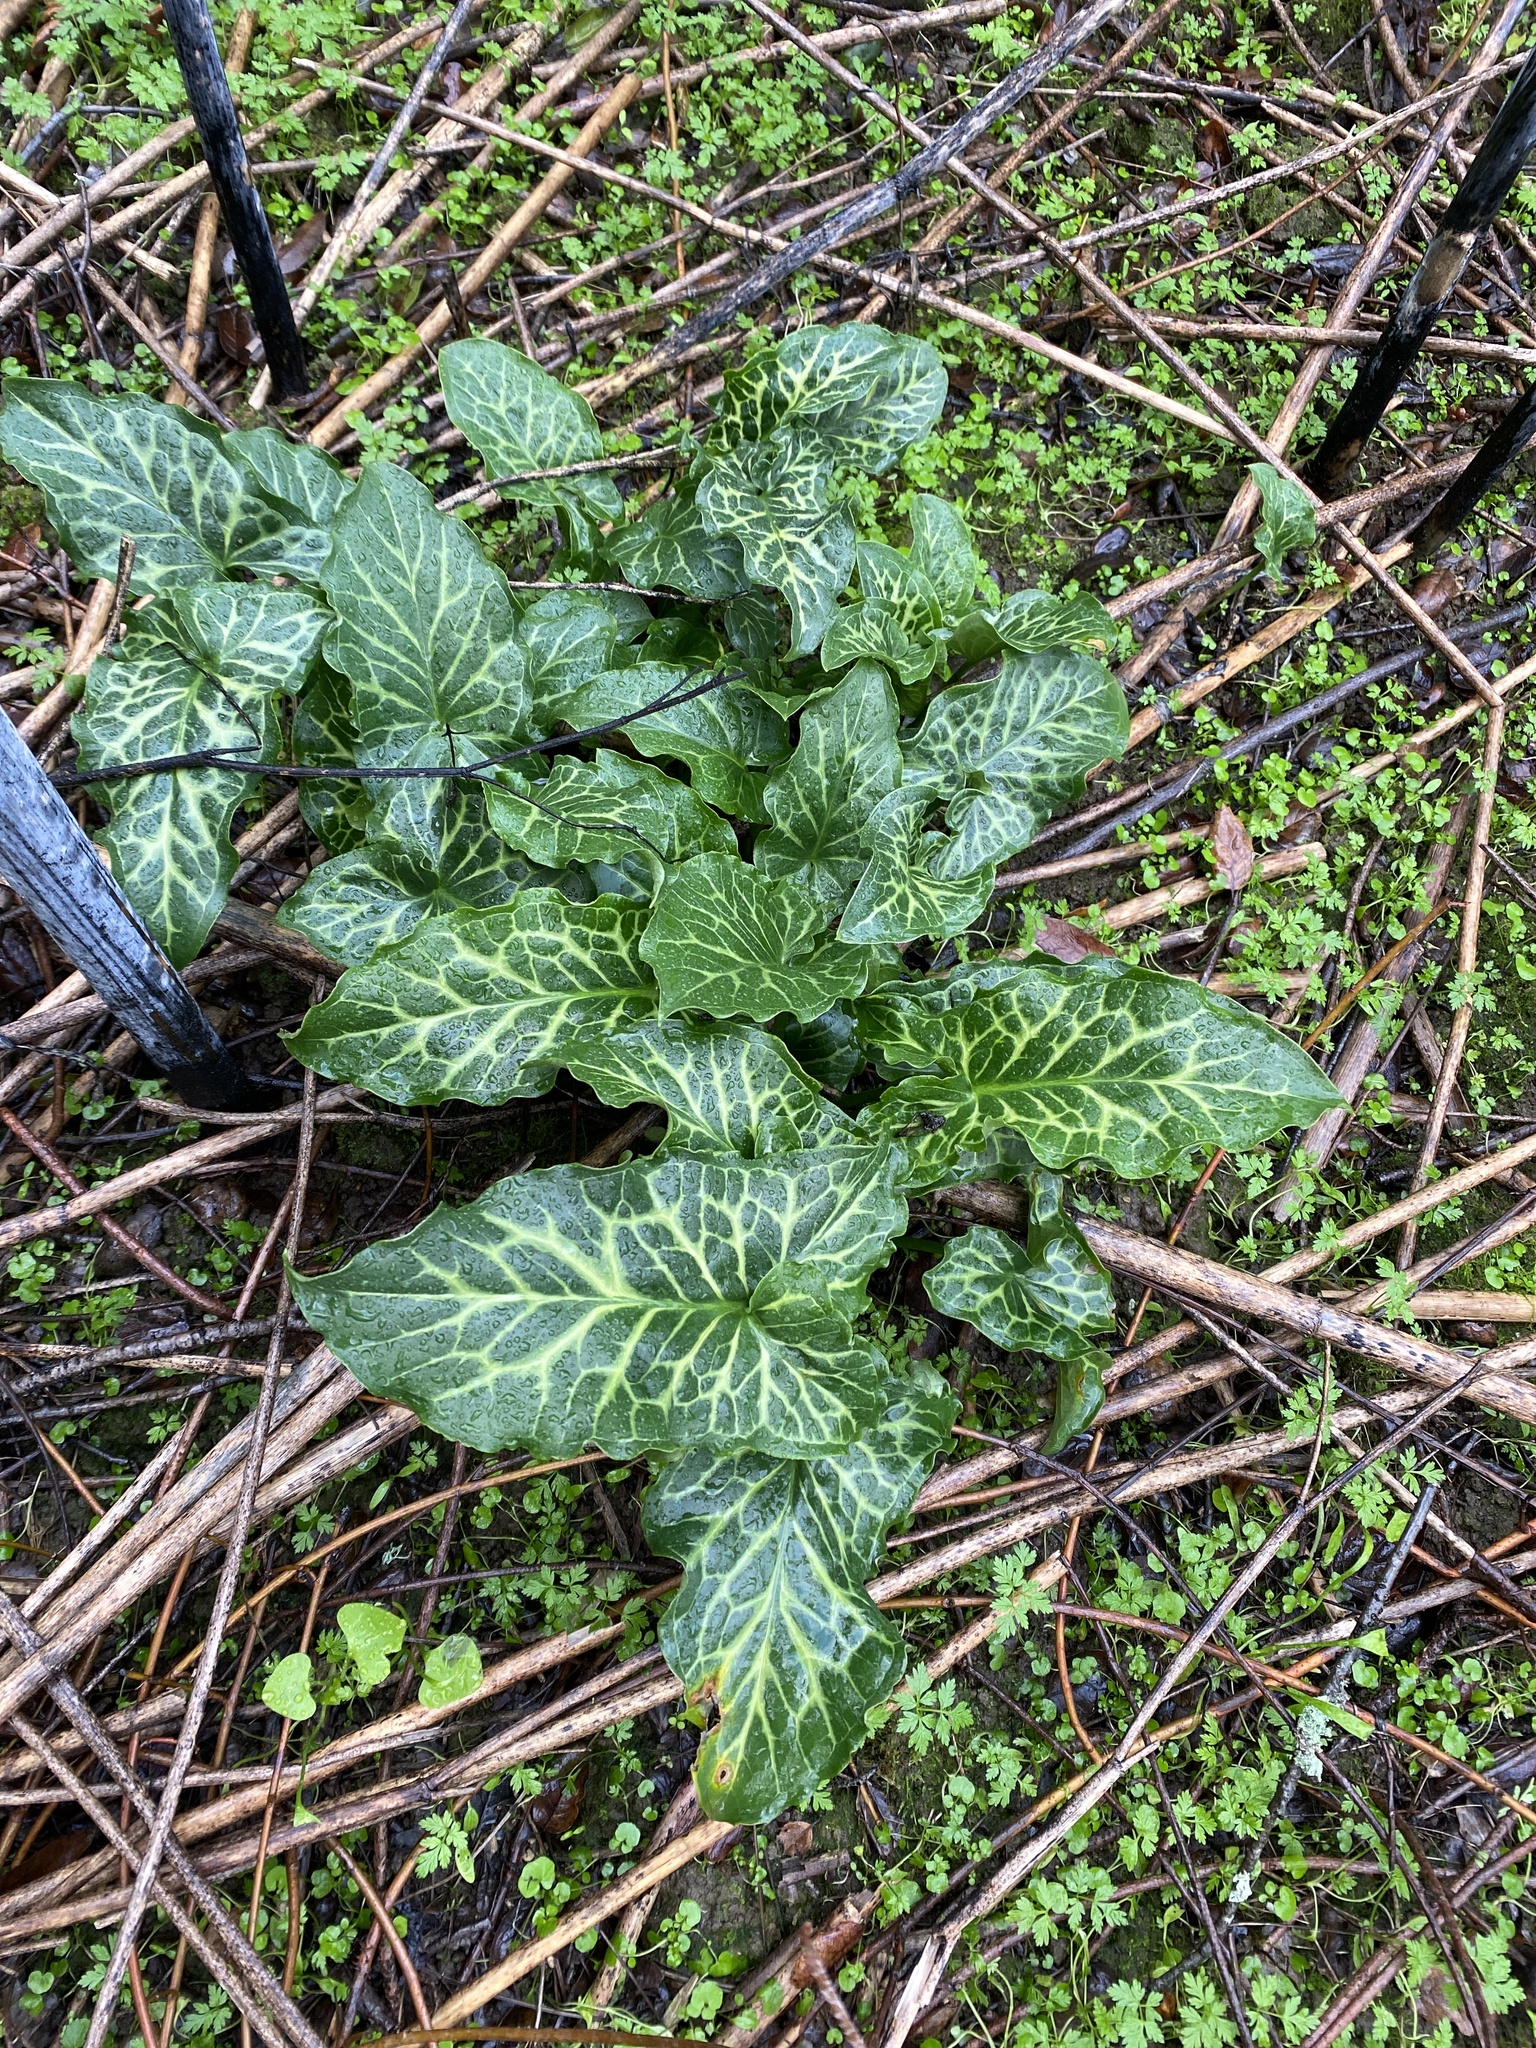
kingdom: Plantae
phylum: Tracheophyta
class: Liliopsida
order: Alismatales
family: Araceae
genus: Arum
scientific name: Arum italicum
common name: Italian lords-and-ladies
